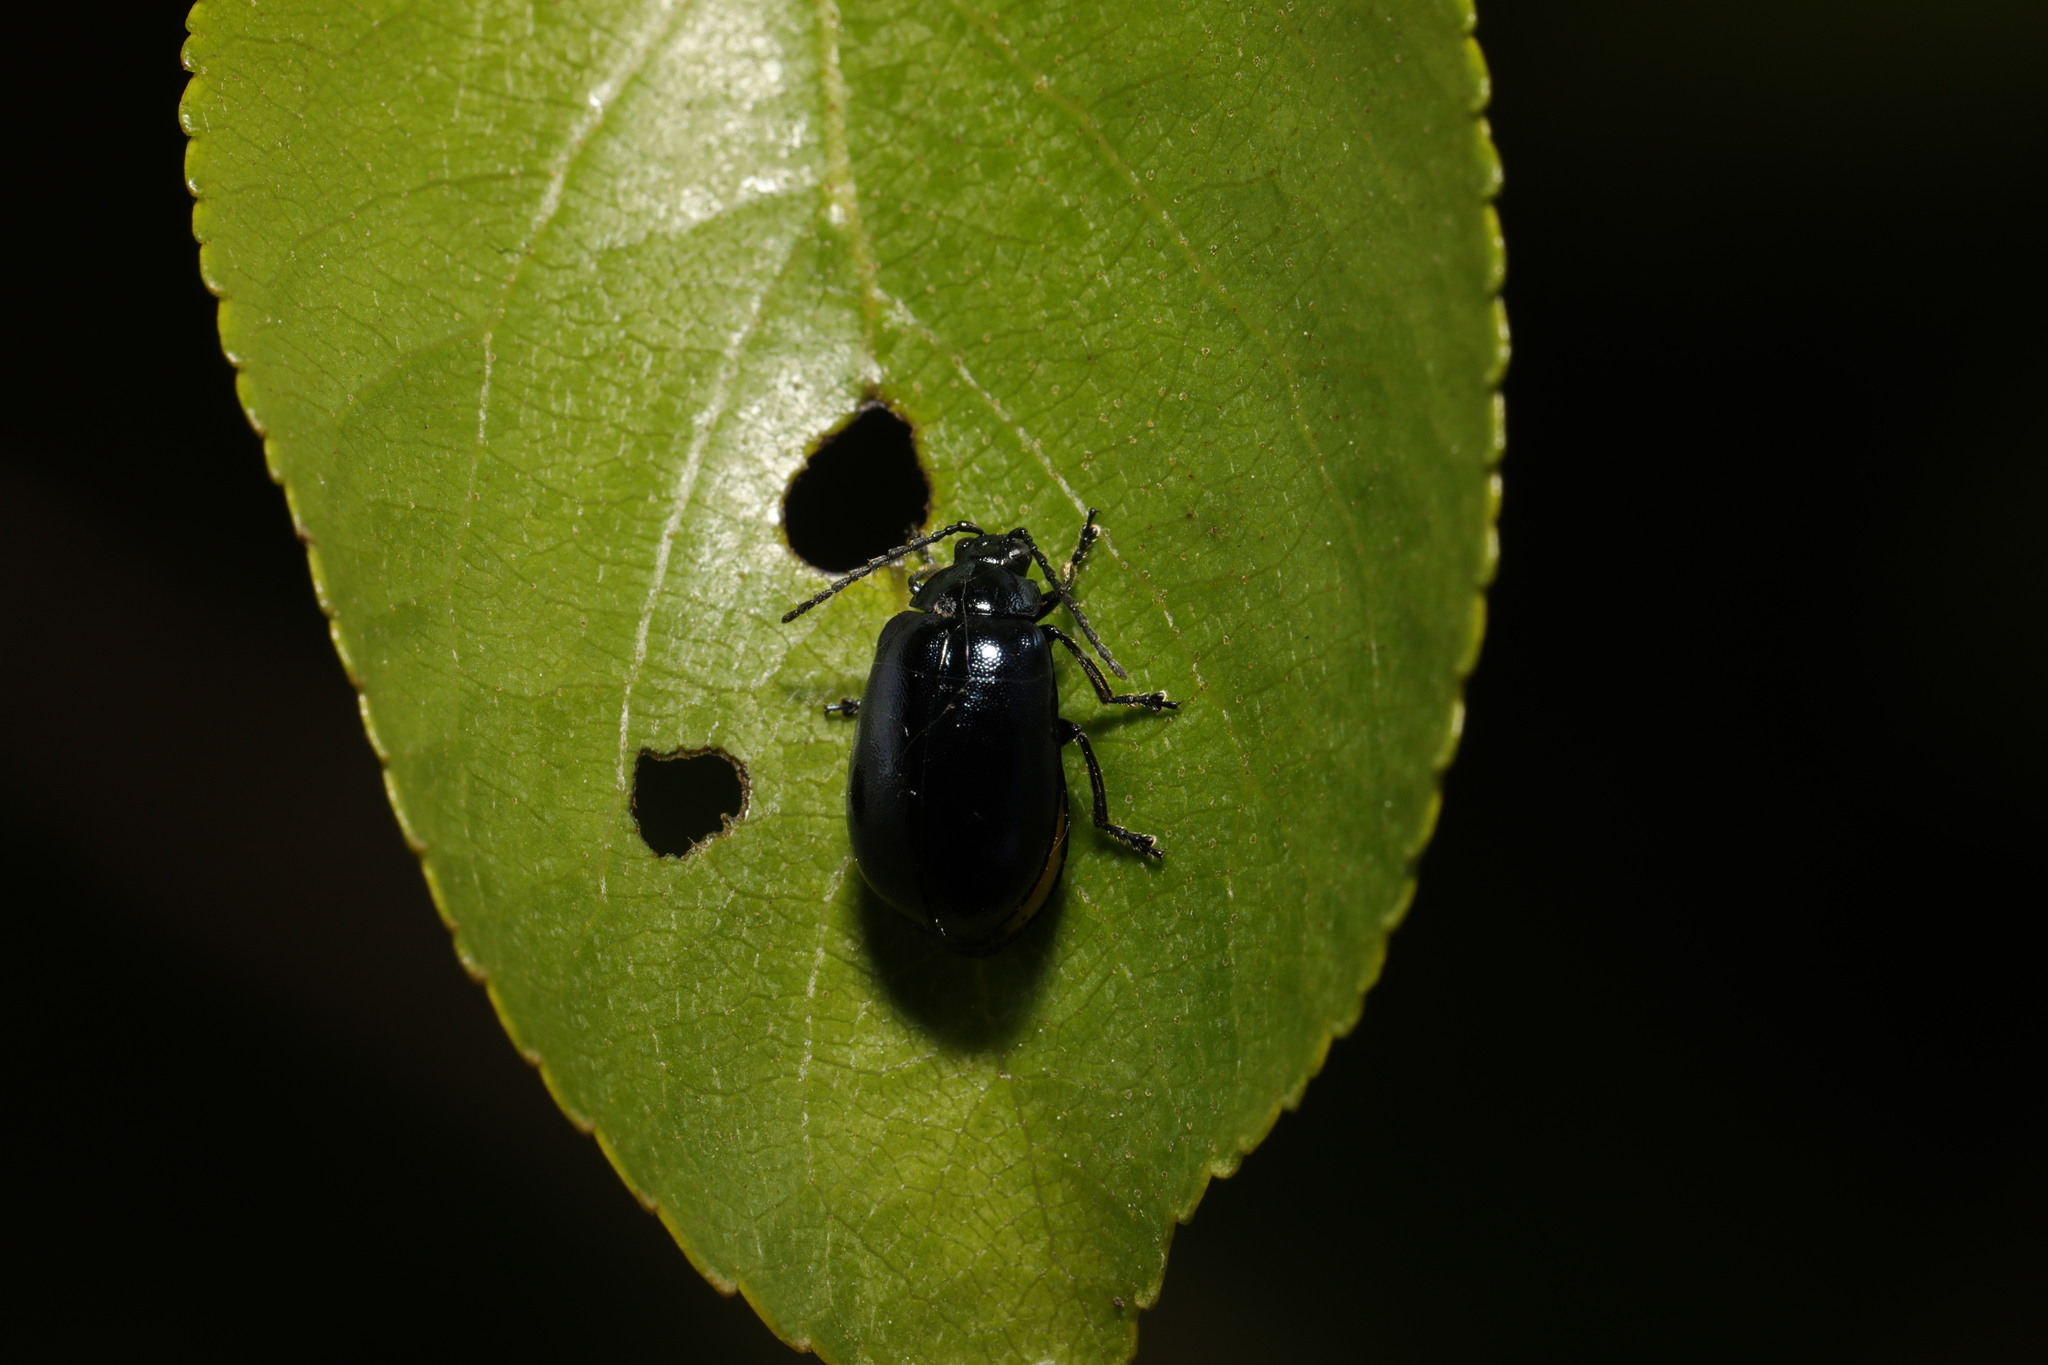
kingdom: Animalia
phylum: Arthropoda
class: Insecta
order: Coleoptera
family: Chrysomelidae
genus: Agelastica
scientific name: Agelastica alni
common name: Alder leaf beetle
